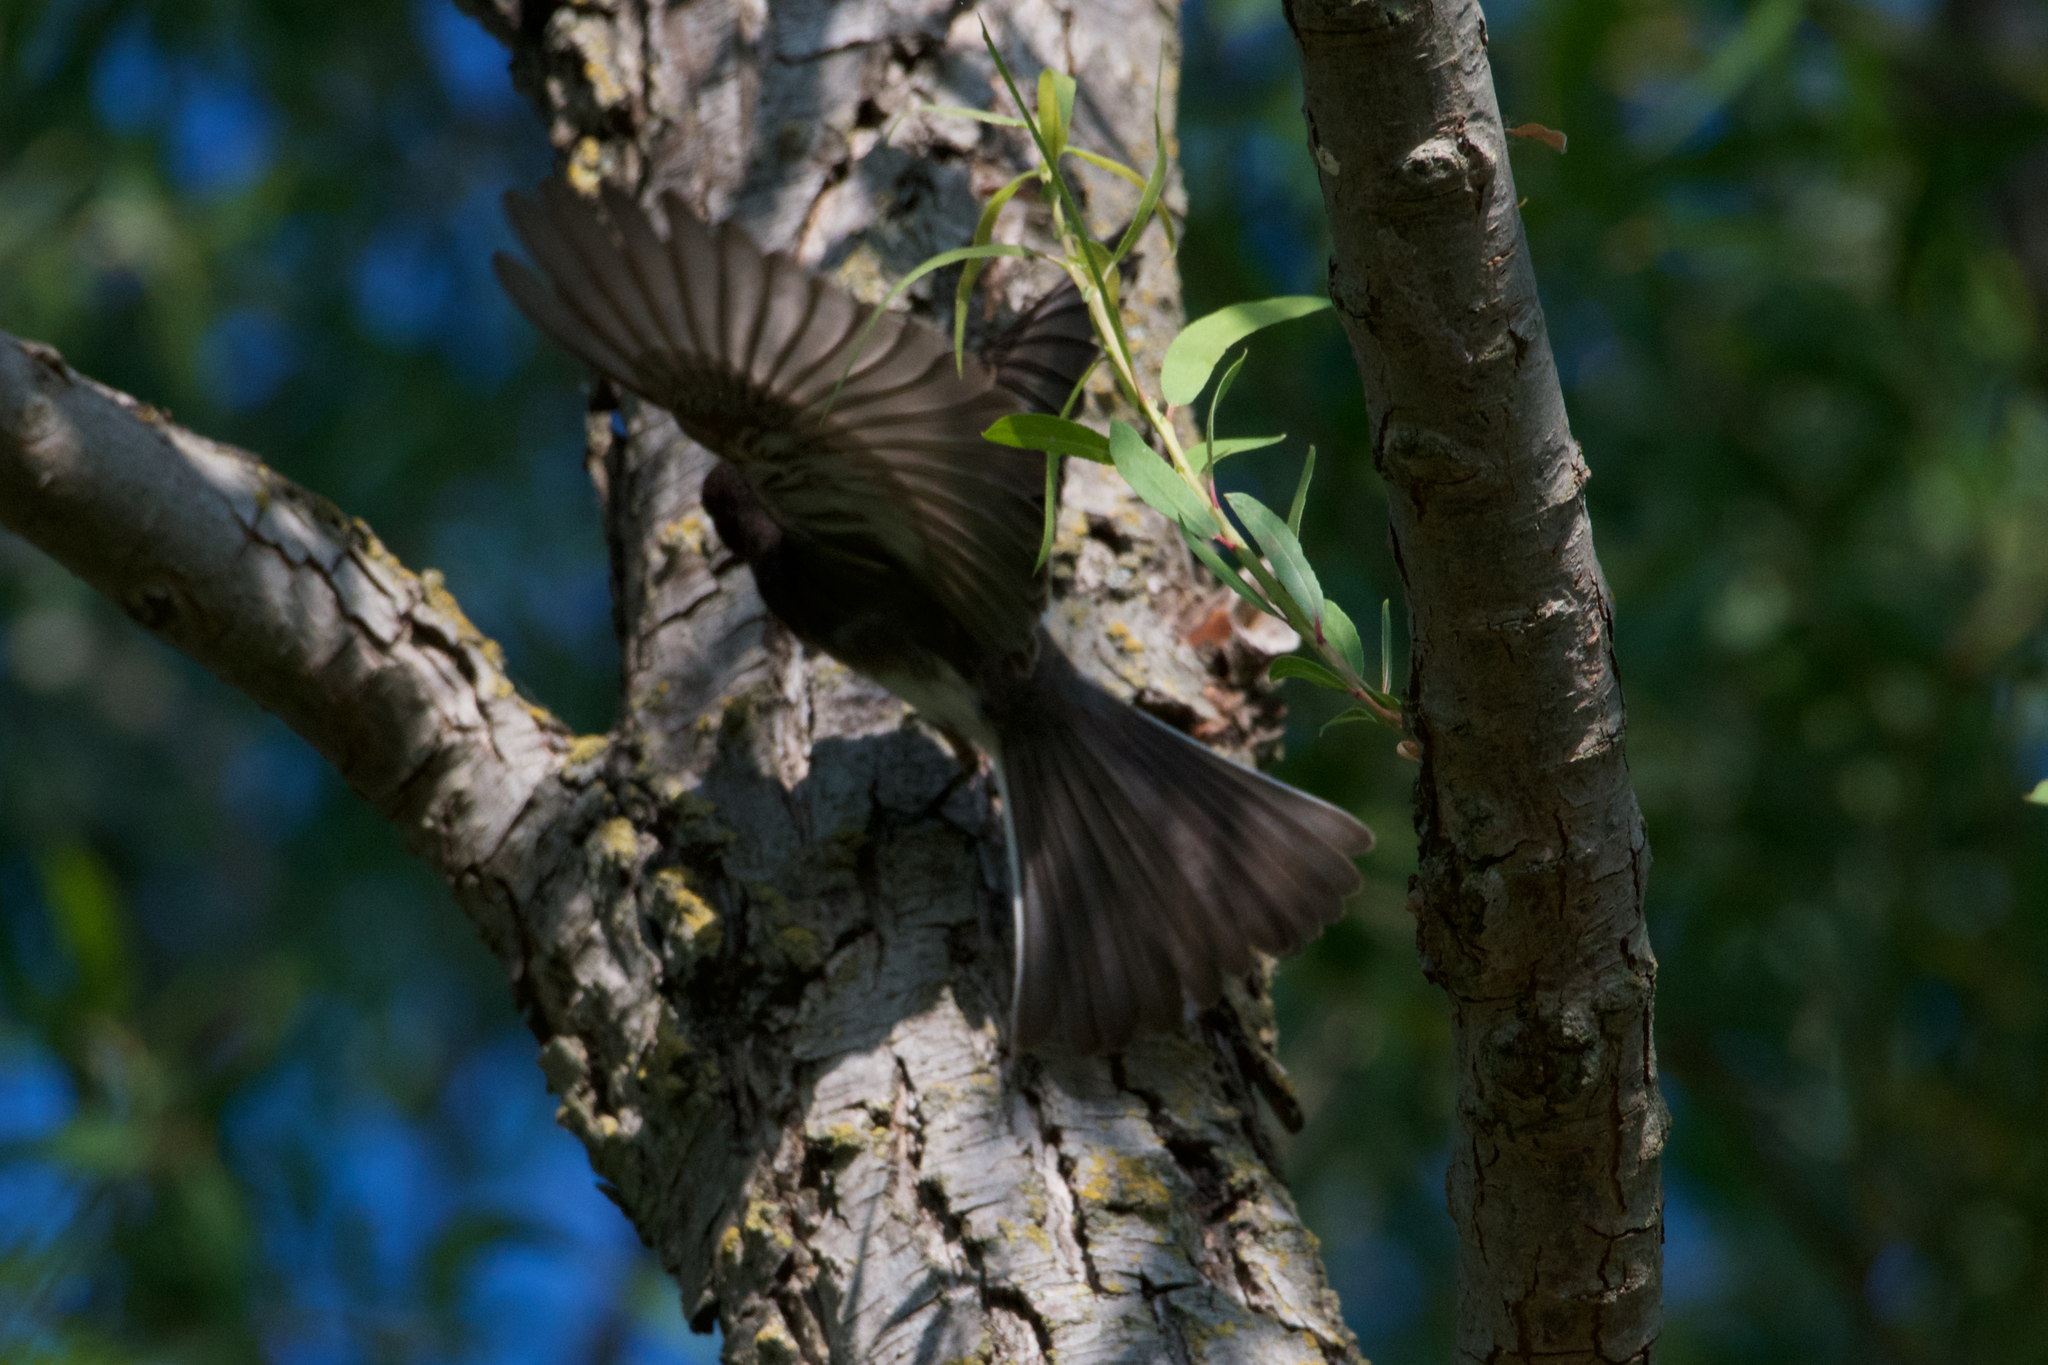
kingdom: Animalia
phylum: Chordata
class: Aves
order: Passeriformes
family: Tyrannidae
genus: Sayornis
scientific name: Sayornis nigricans
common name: Black phoebe
